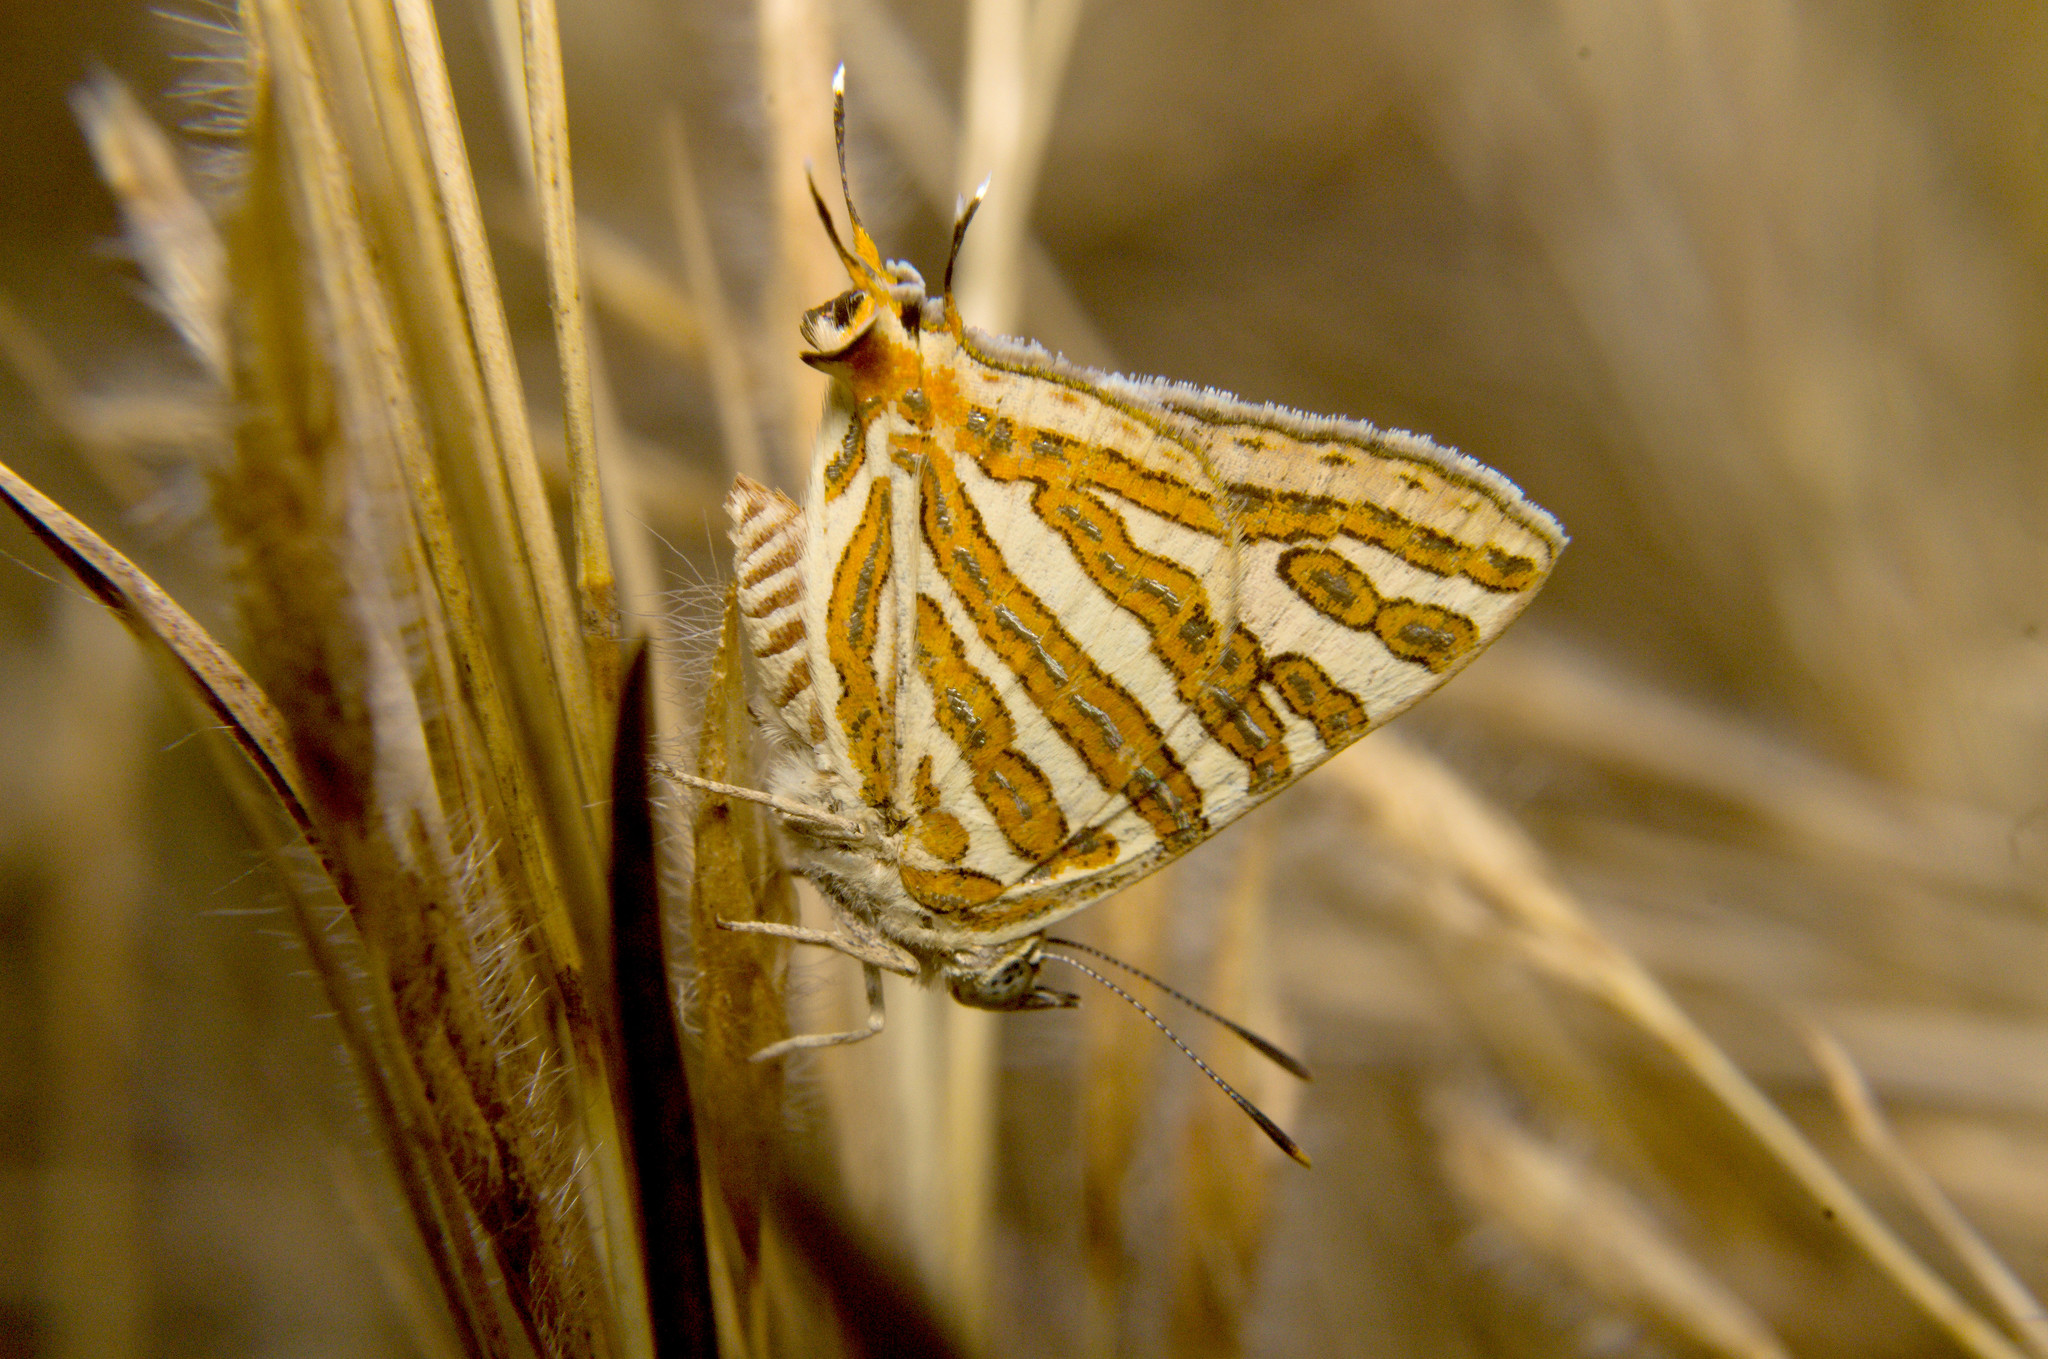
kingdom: Animalia
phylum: Arthropoda
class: Insecta
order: Lepidoptera
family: Lycaenidae
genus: Cigaritis
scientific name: Cigaritis vulcanus
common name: Common silverline
